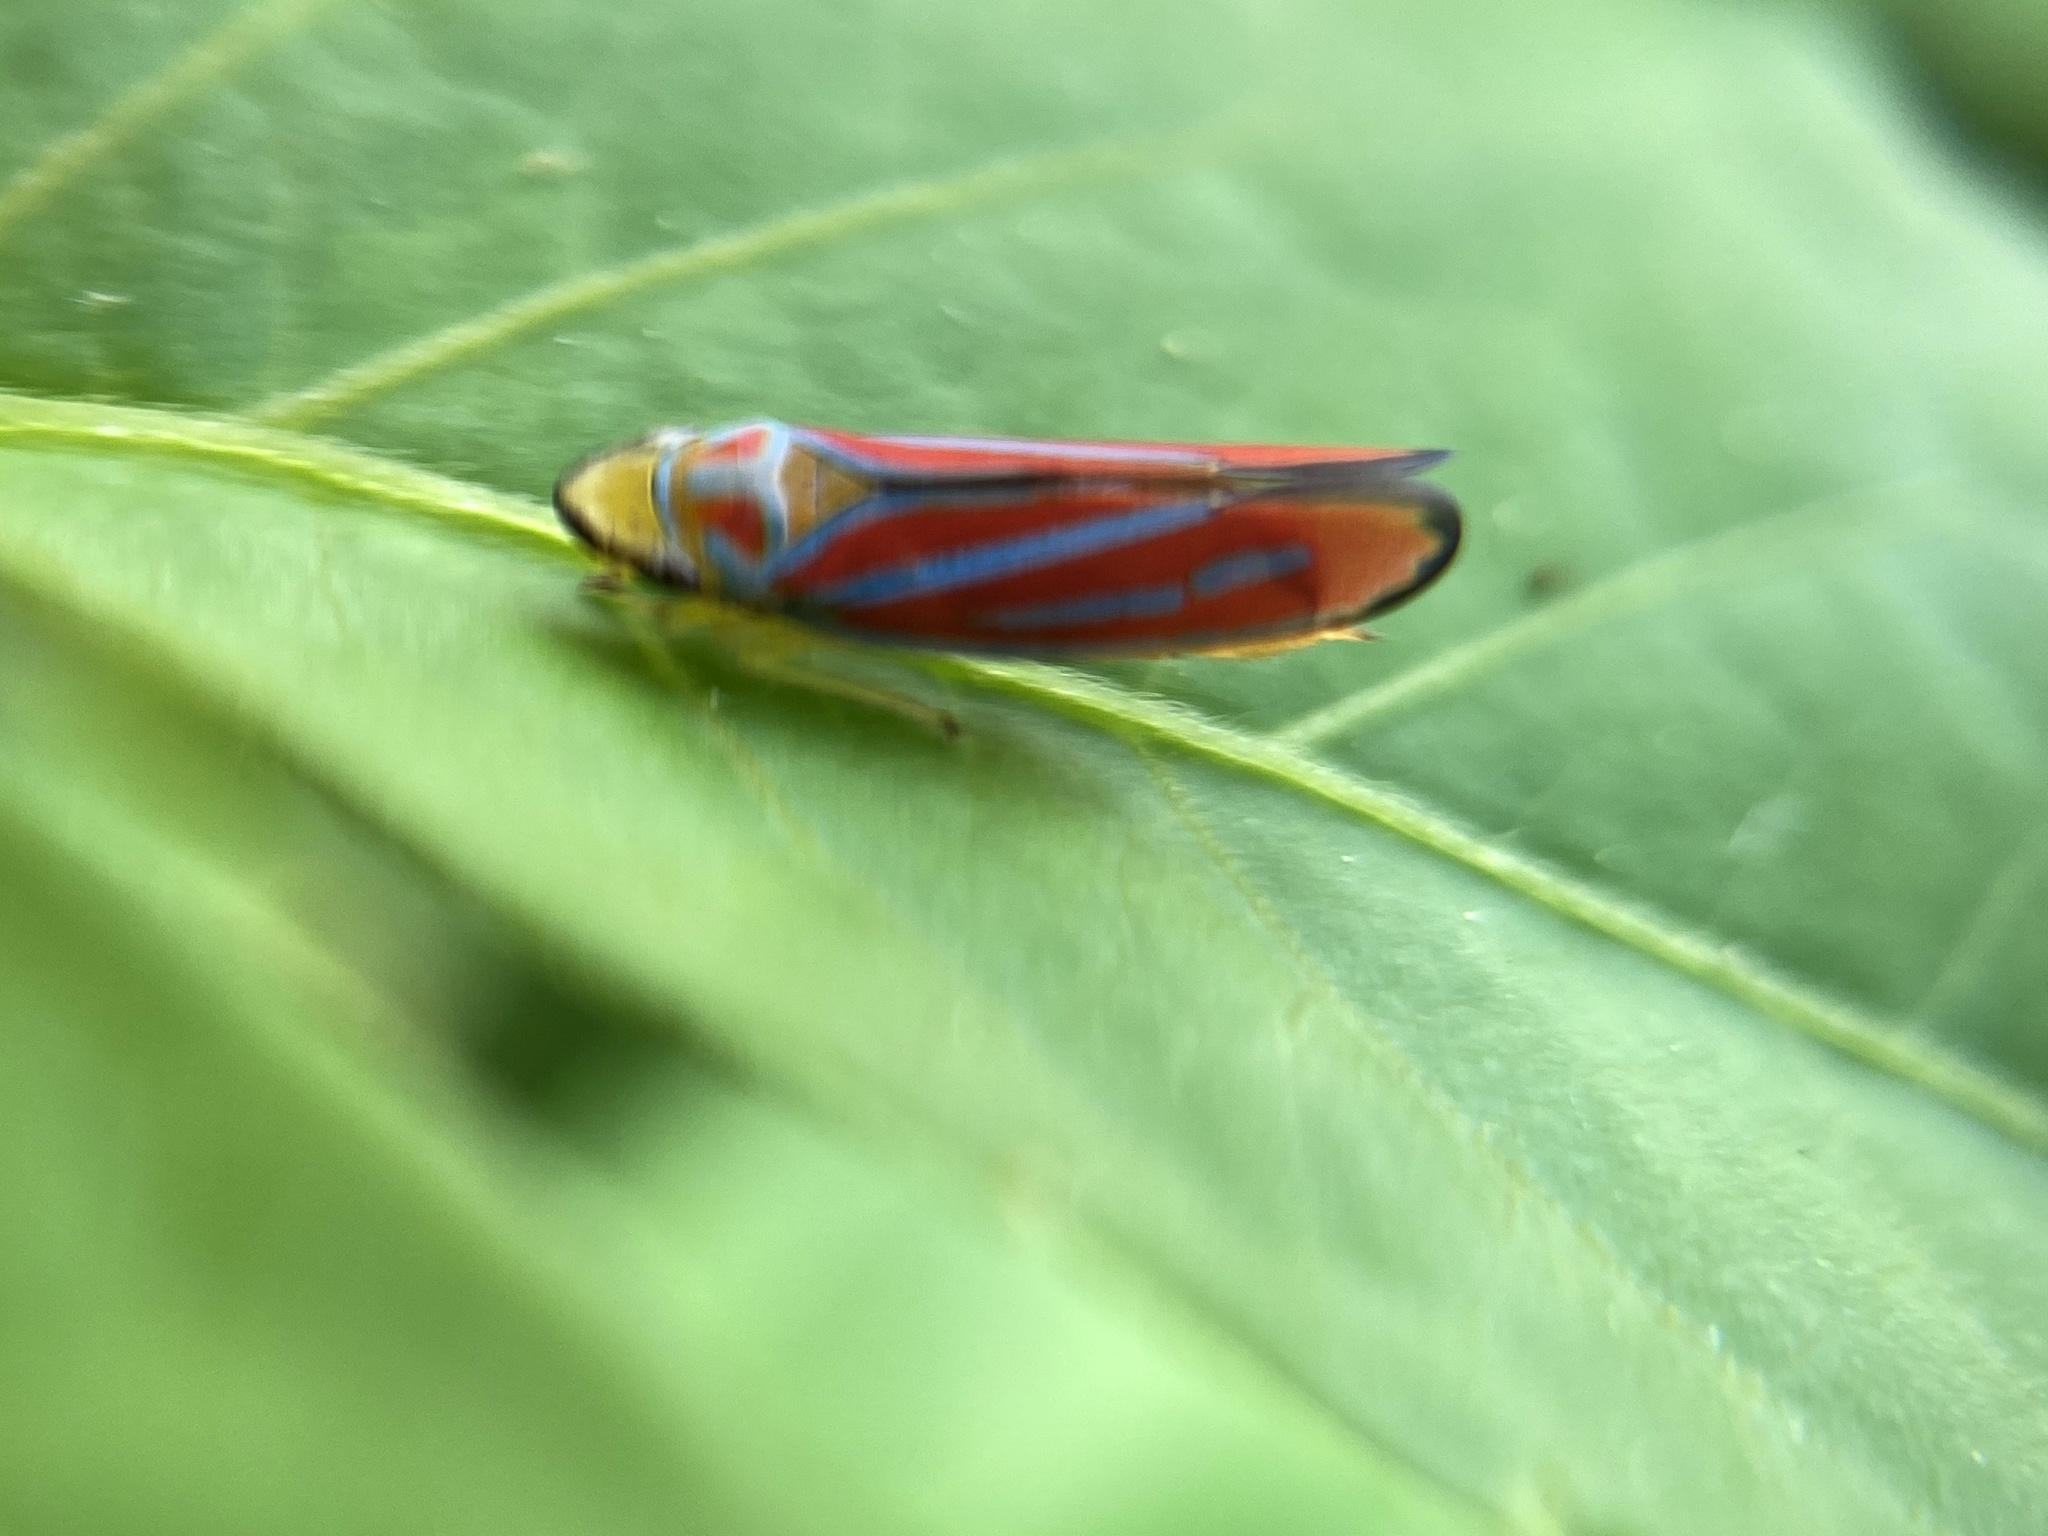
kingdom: Animalia
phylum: Arthropoda
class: Insecta
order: Hemiptera
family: Cicadellidae
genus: Graphocephala
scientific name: Graphocephala coccinea
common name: Candy-striped leafhopper
